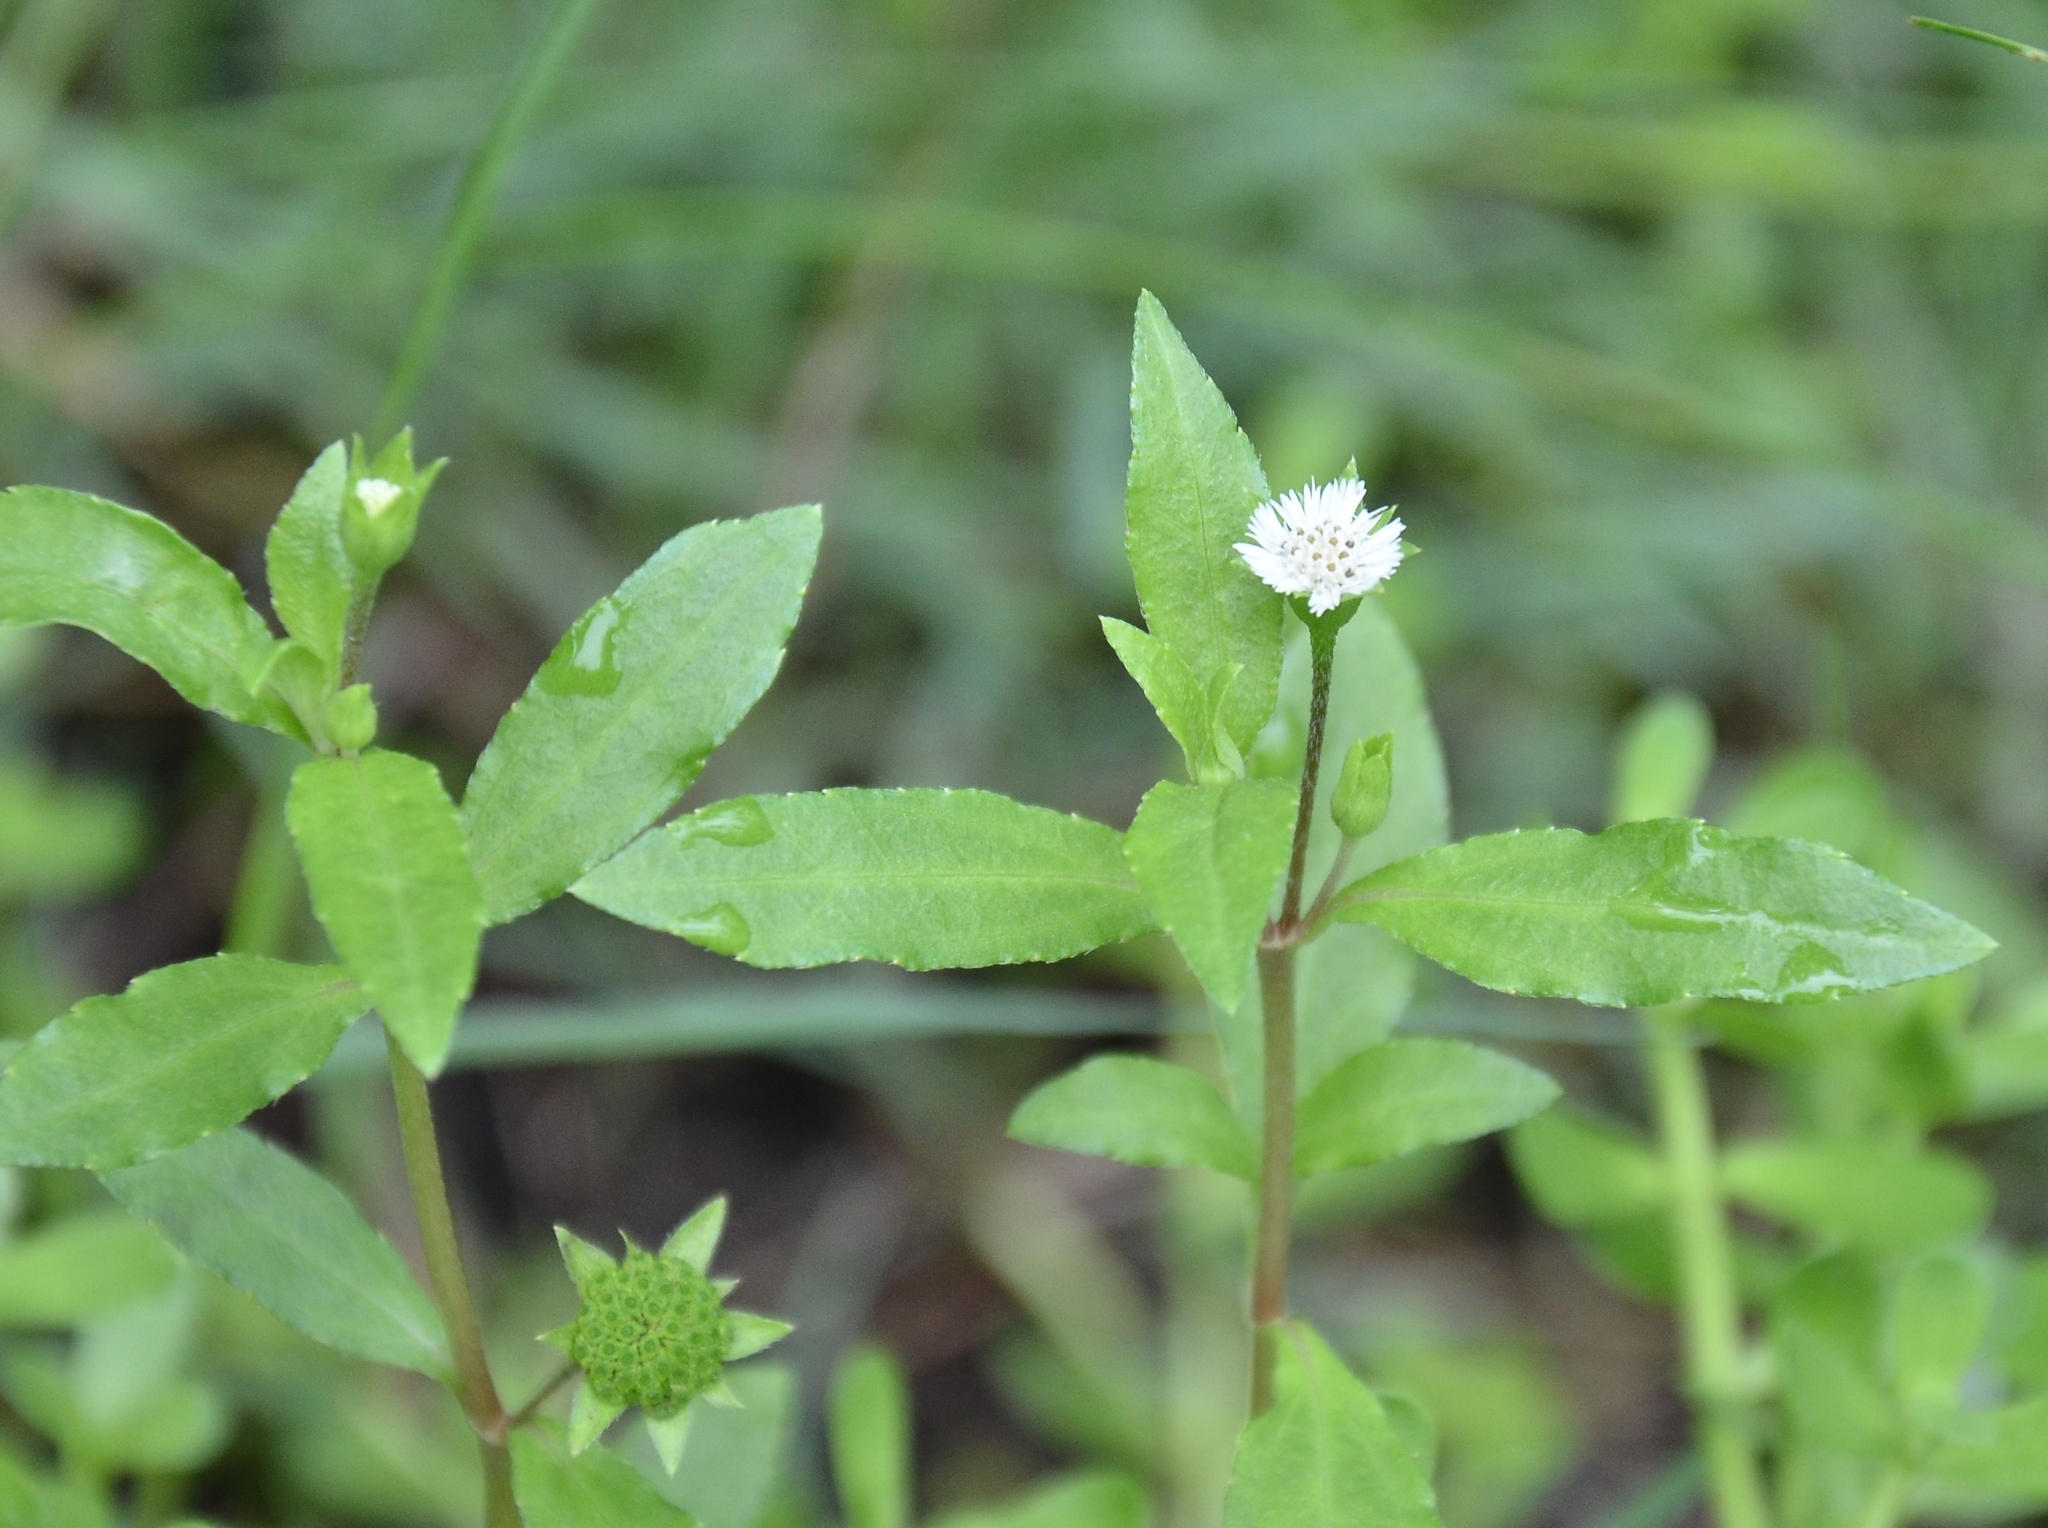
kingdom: Plantae
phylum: Tracheophyta
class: Magnoliopsida
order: Asterales
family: Asteraceae
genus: Eclipta
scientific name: Eclipta prostrata
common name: False daisy
